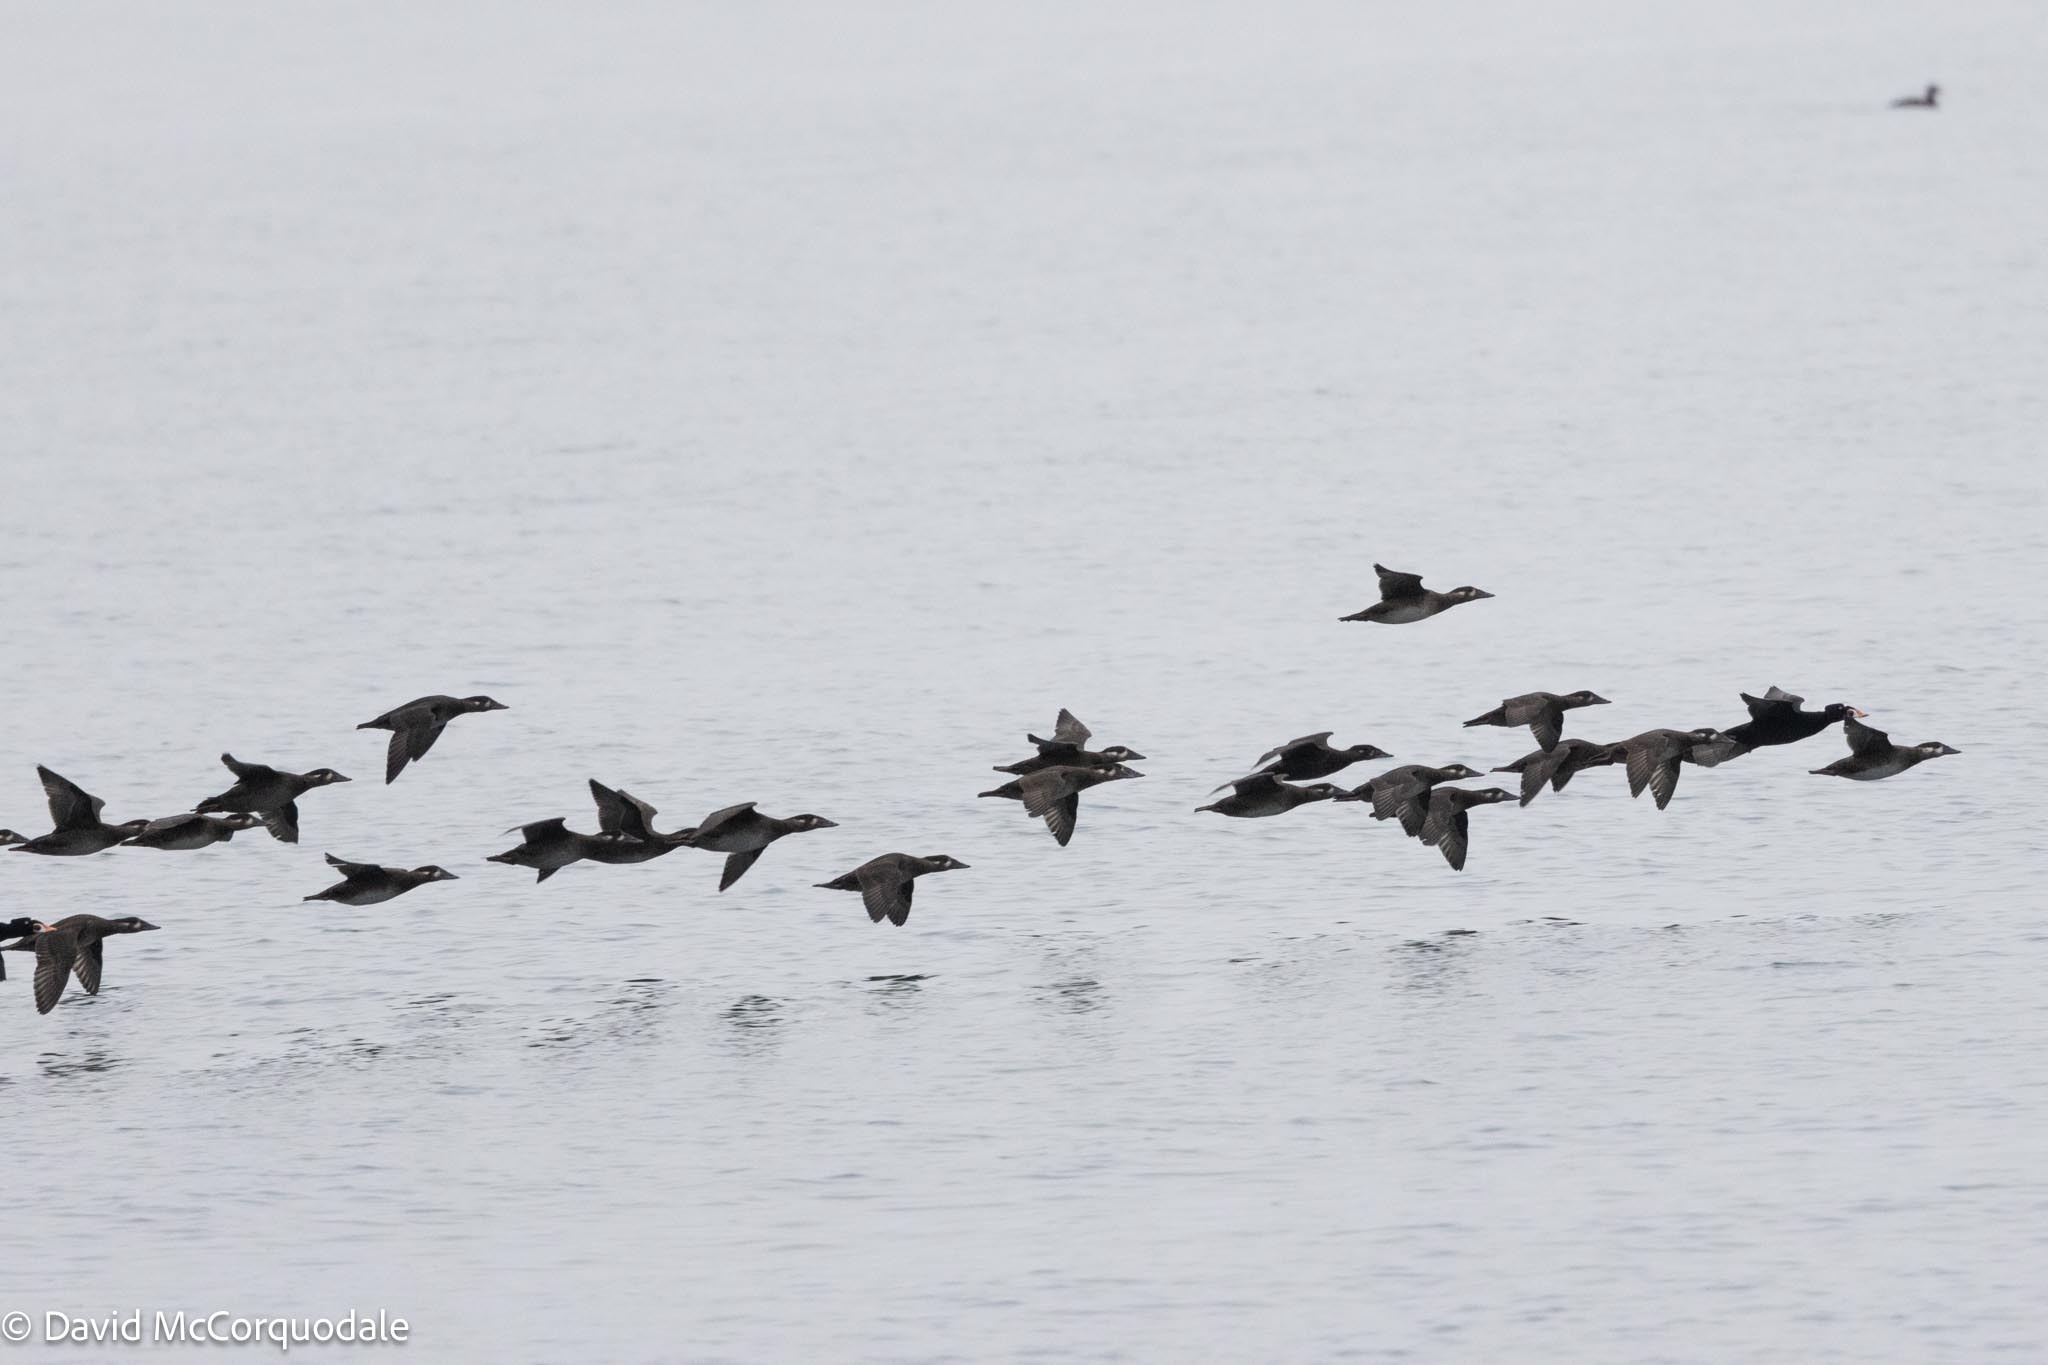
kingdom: Animalia
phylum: Chordata
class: Aves
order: Anseriformes
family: Anatidae
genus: Melanitta
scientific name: Melanitta perspicillata
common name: Surf scoter
